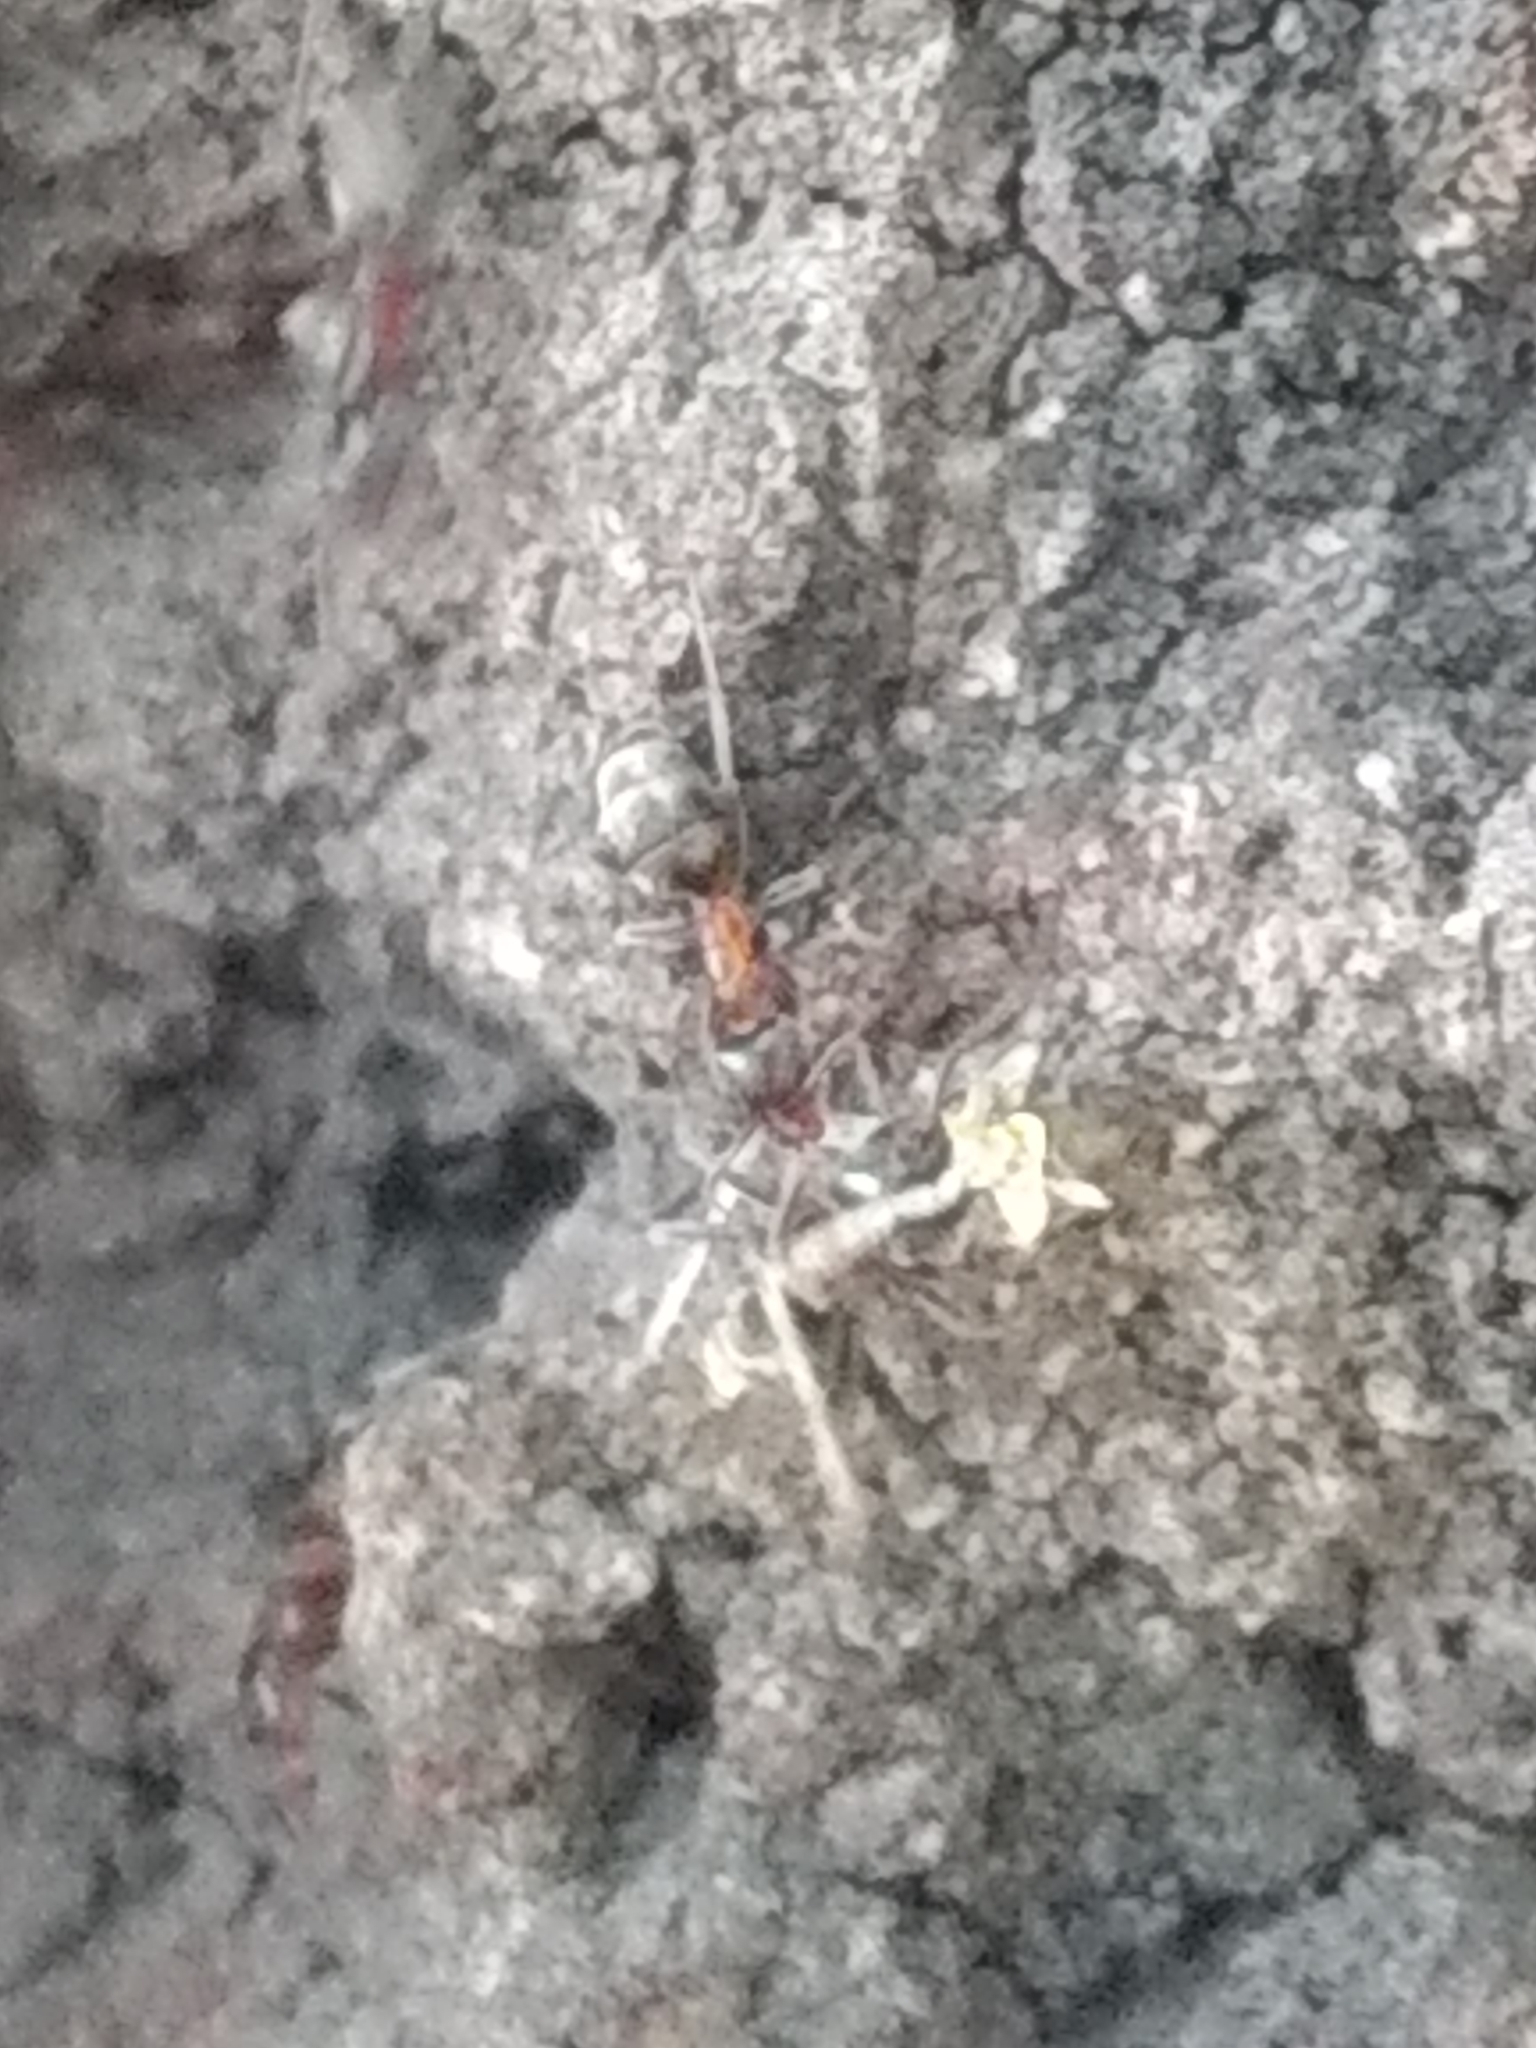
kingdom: Animalia
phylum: Arthropoda
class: Insecta
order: Hymenoptera
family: Formicidae
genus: Liometopum
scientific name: Liometopum occidentale
